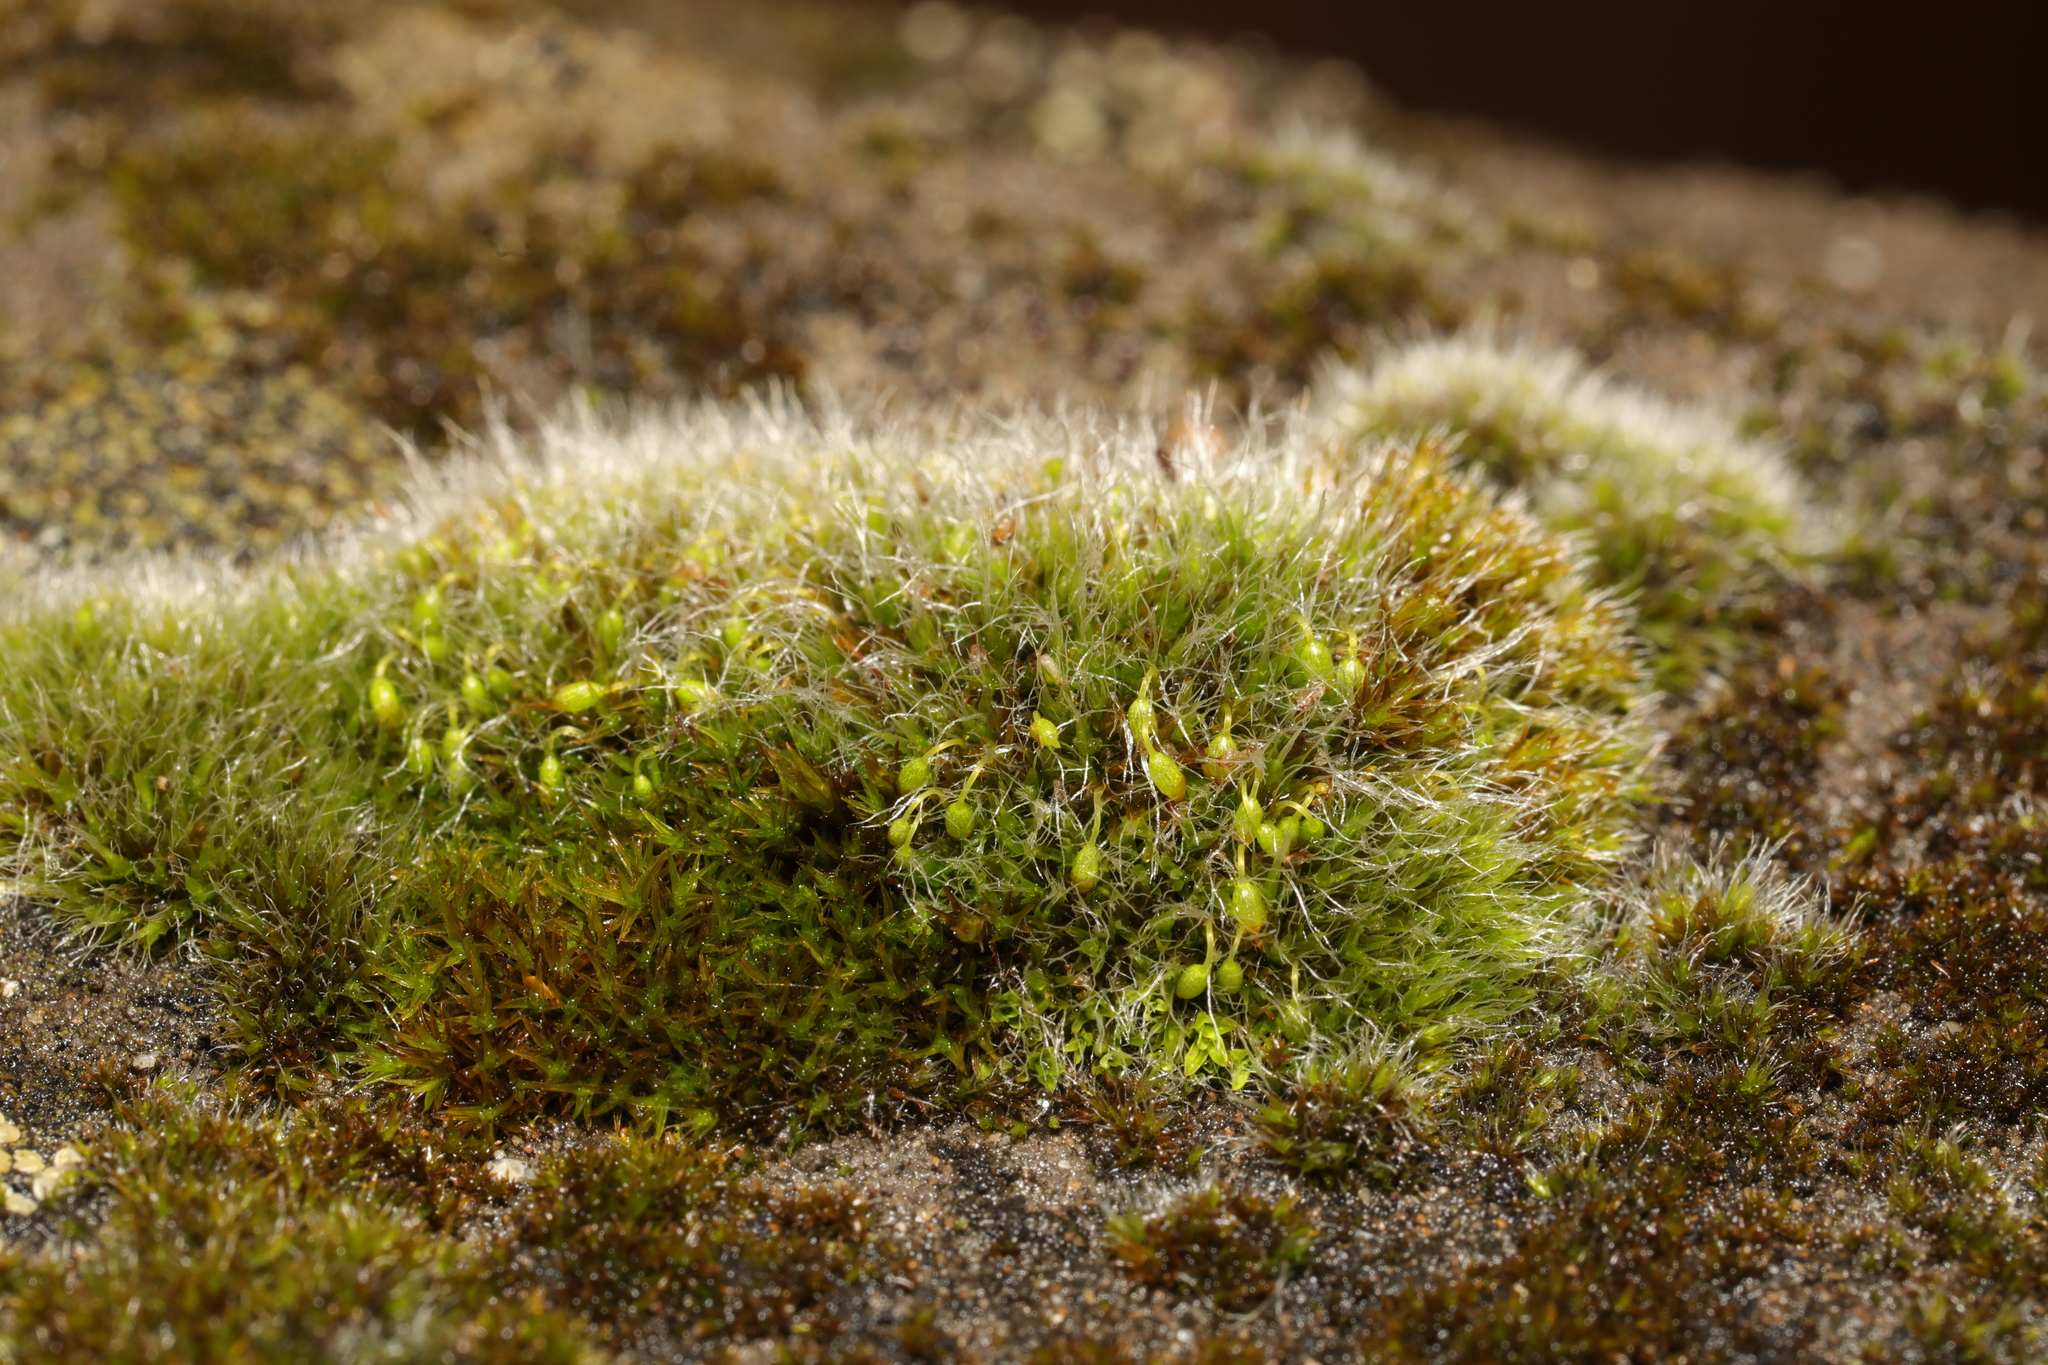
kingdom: Plantae
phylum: Bryophyta
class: Bryopsida
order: Grimmiales
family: Grimmiaceae
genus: Grimmia
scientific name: Grimmia pulvinata
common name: Grey-cushioned grimmia
